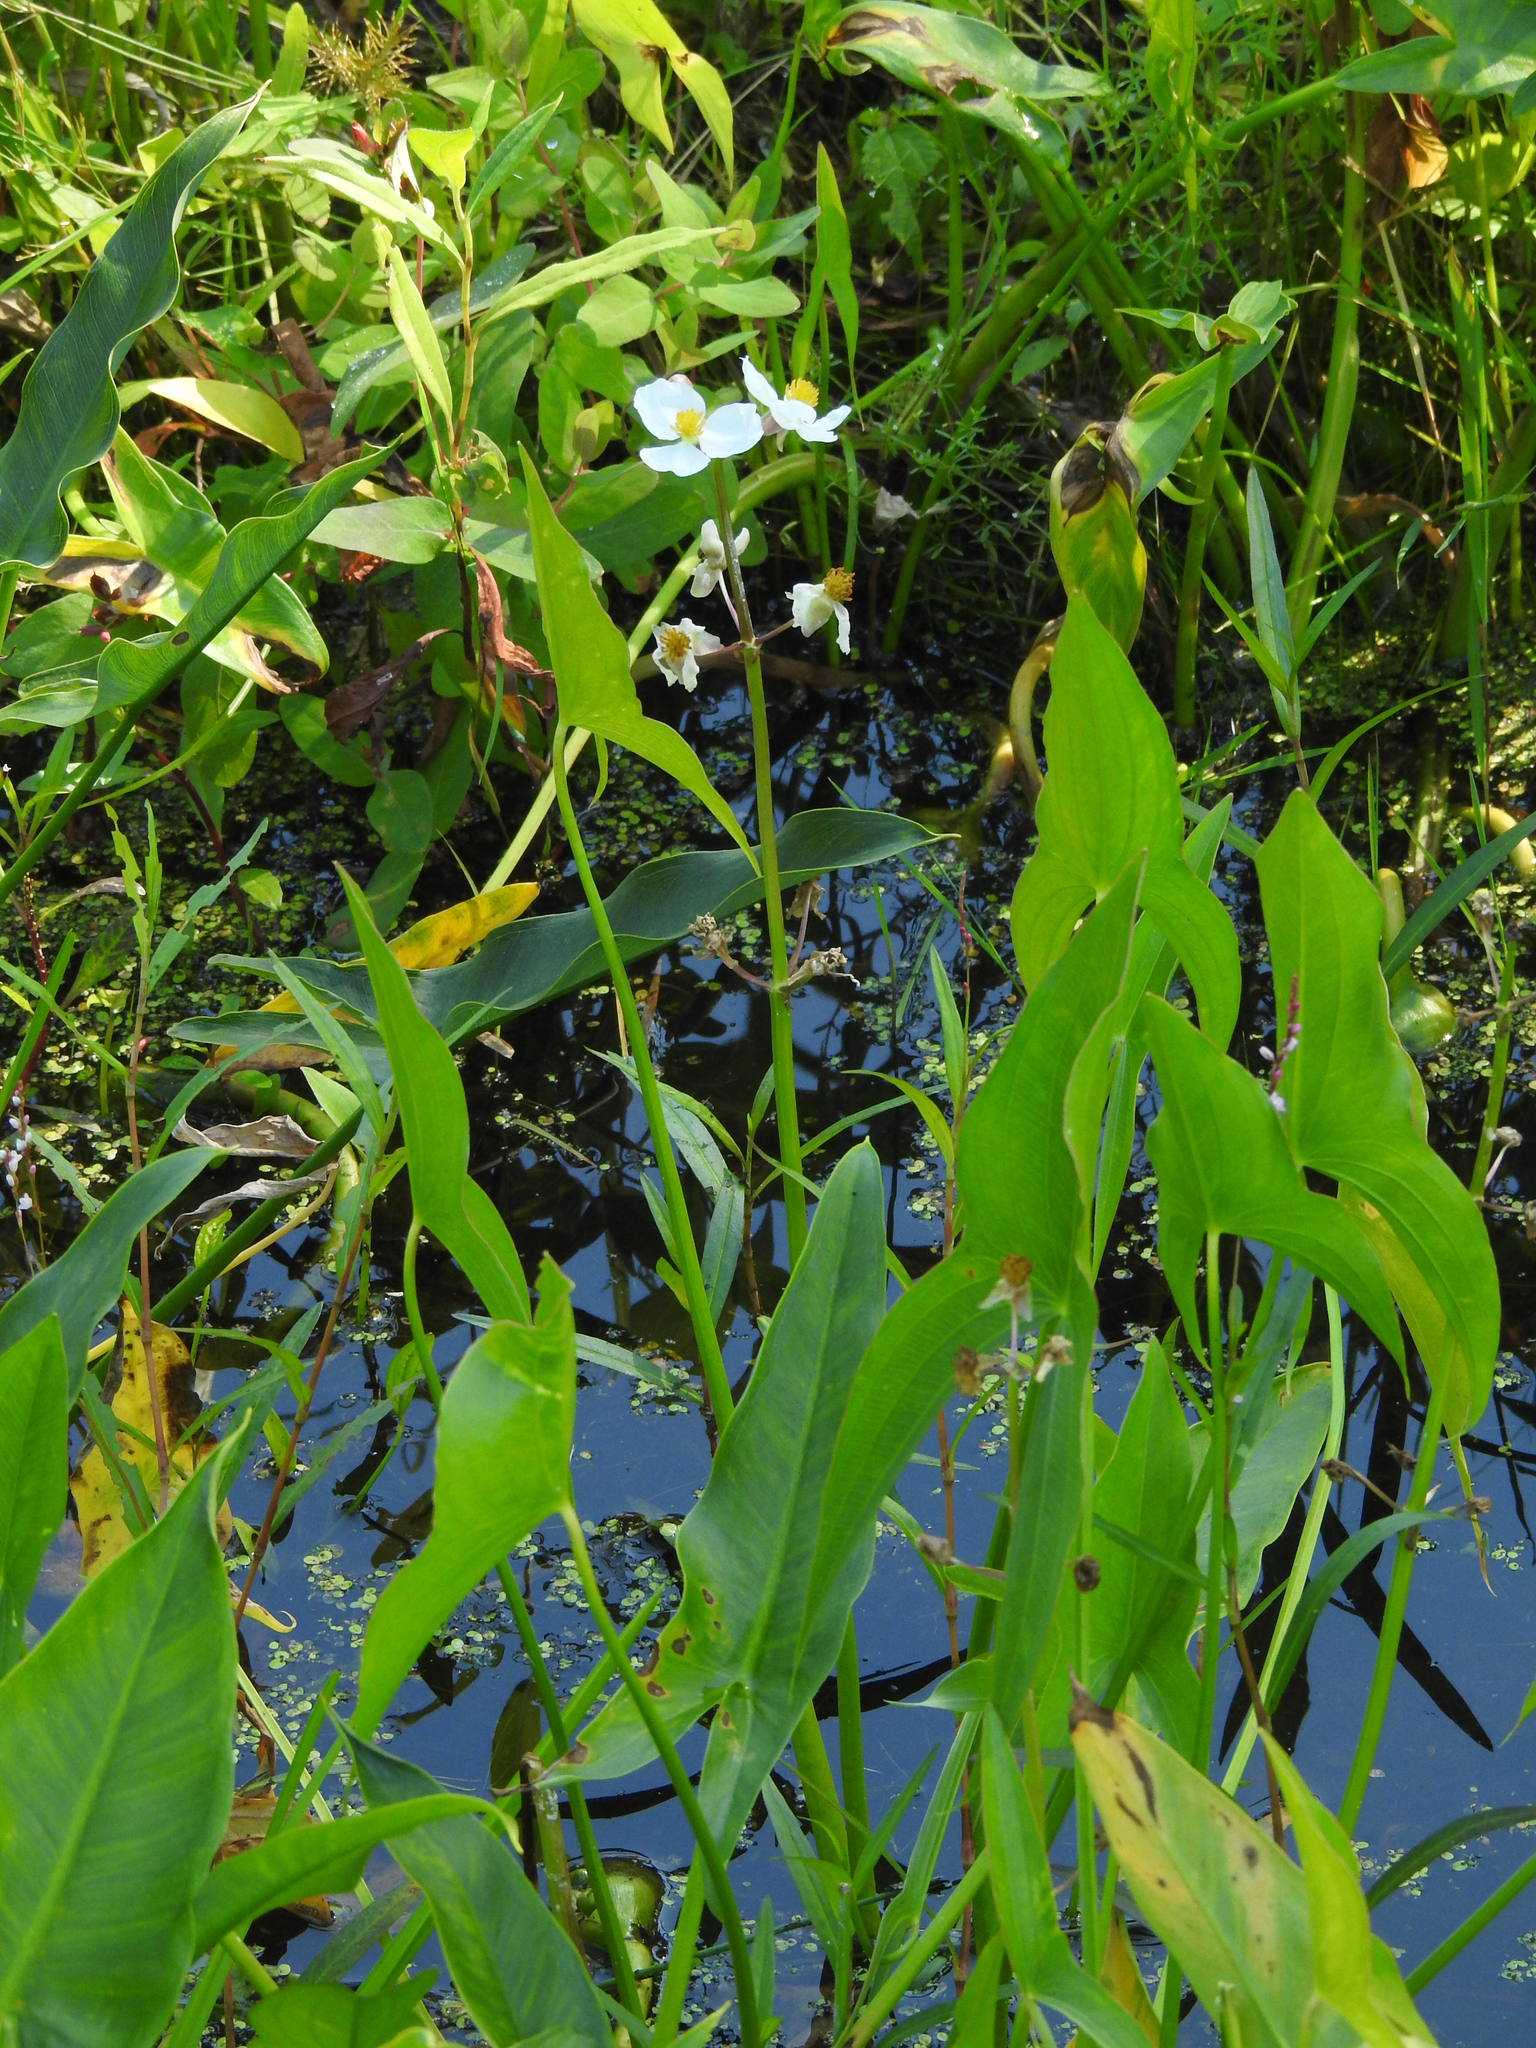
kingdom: Plantae
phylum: Tracheophyta
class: Liliopsida
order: Alismatales
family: Alismataceae
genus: Sagittaria
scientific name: Sagittaria latifolia
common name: Duck-potato
